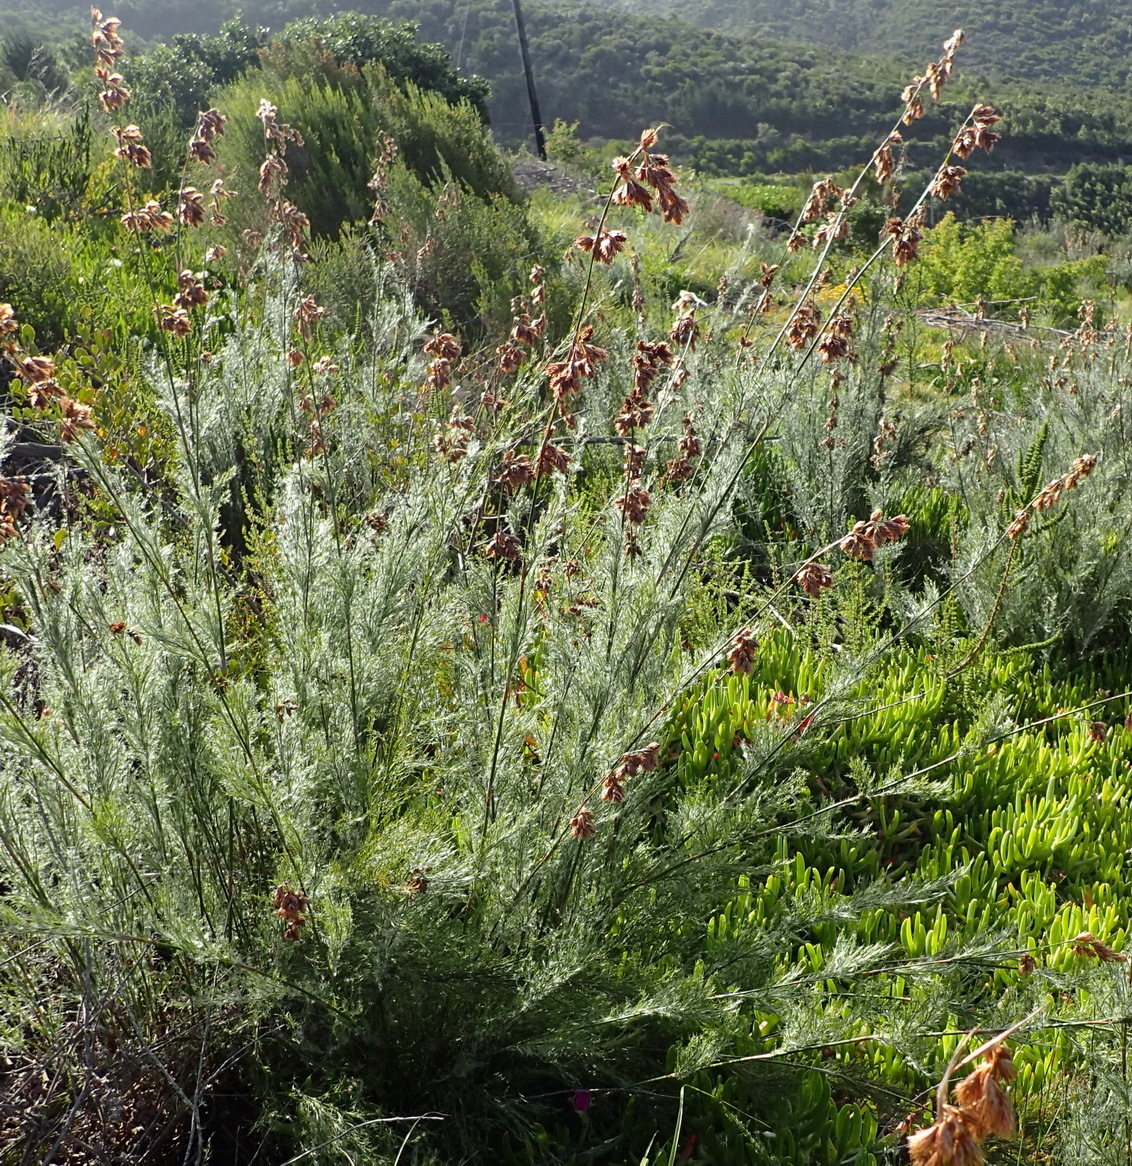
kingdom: Plantae
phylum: Tracheophyta
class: Liliopsida
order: Poales
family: Restionaceae
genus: Thamnochortus
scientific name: Thamnochortus glaber
